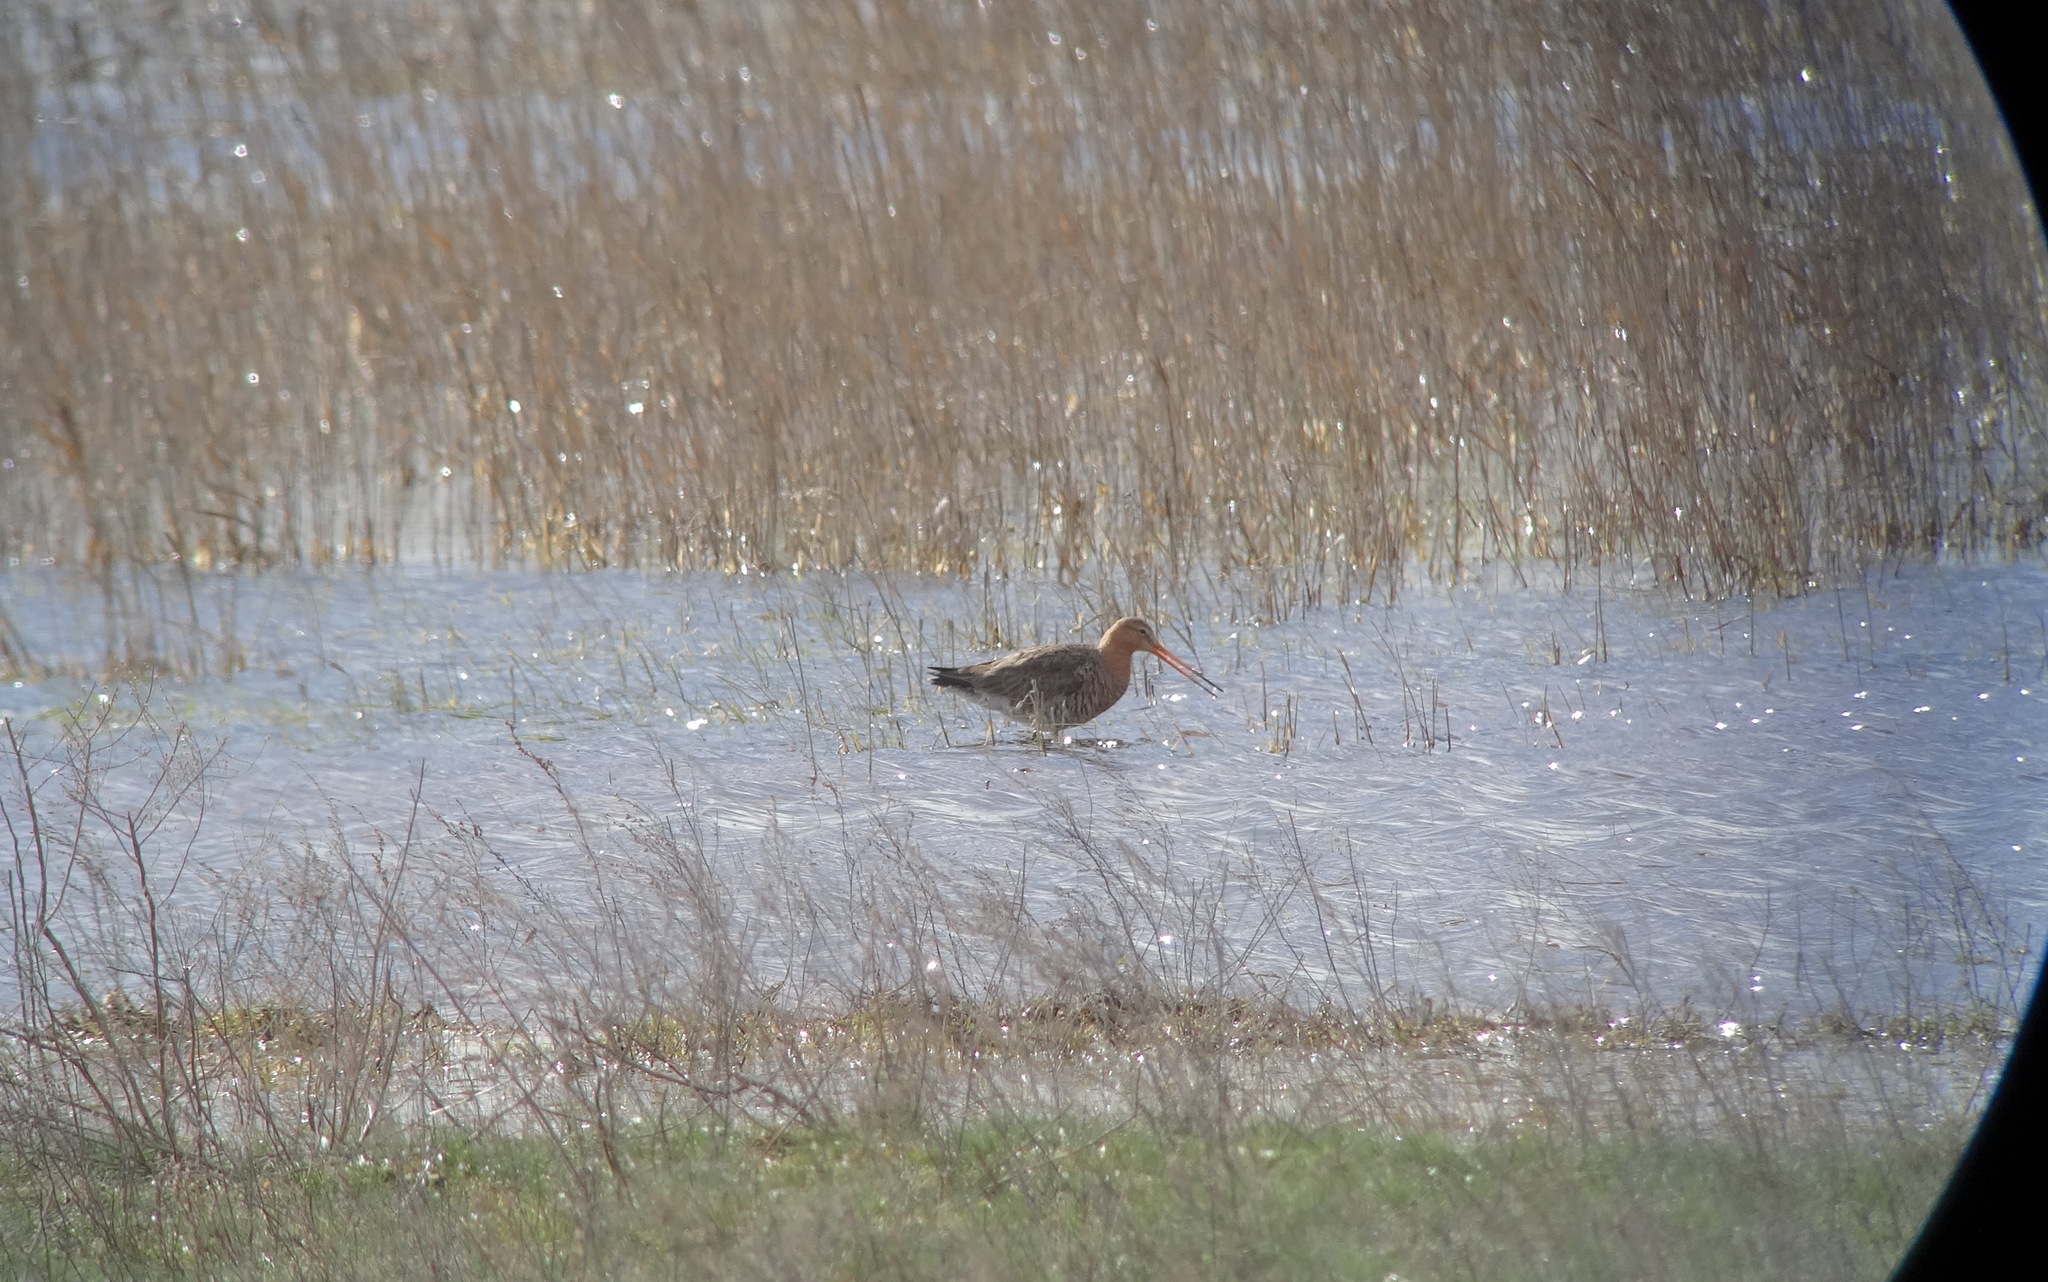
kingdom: Animalia
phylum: Chordata
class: Aves
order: Charadriiformes
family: Scolopacidae
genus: Limosa
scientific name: Limosa limosa
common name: Black-tailed godwit
